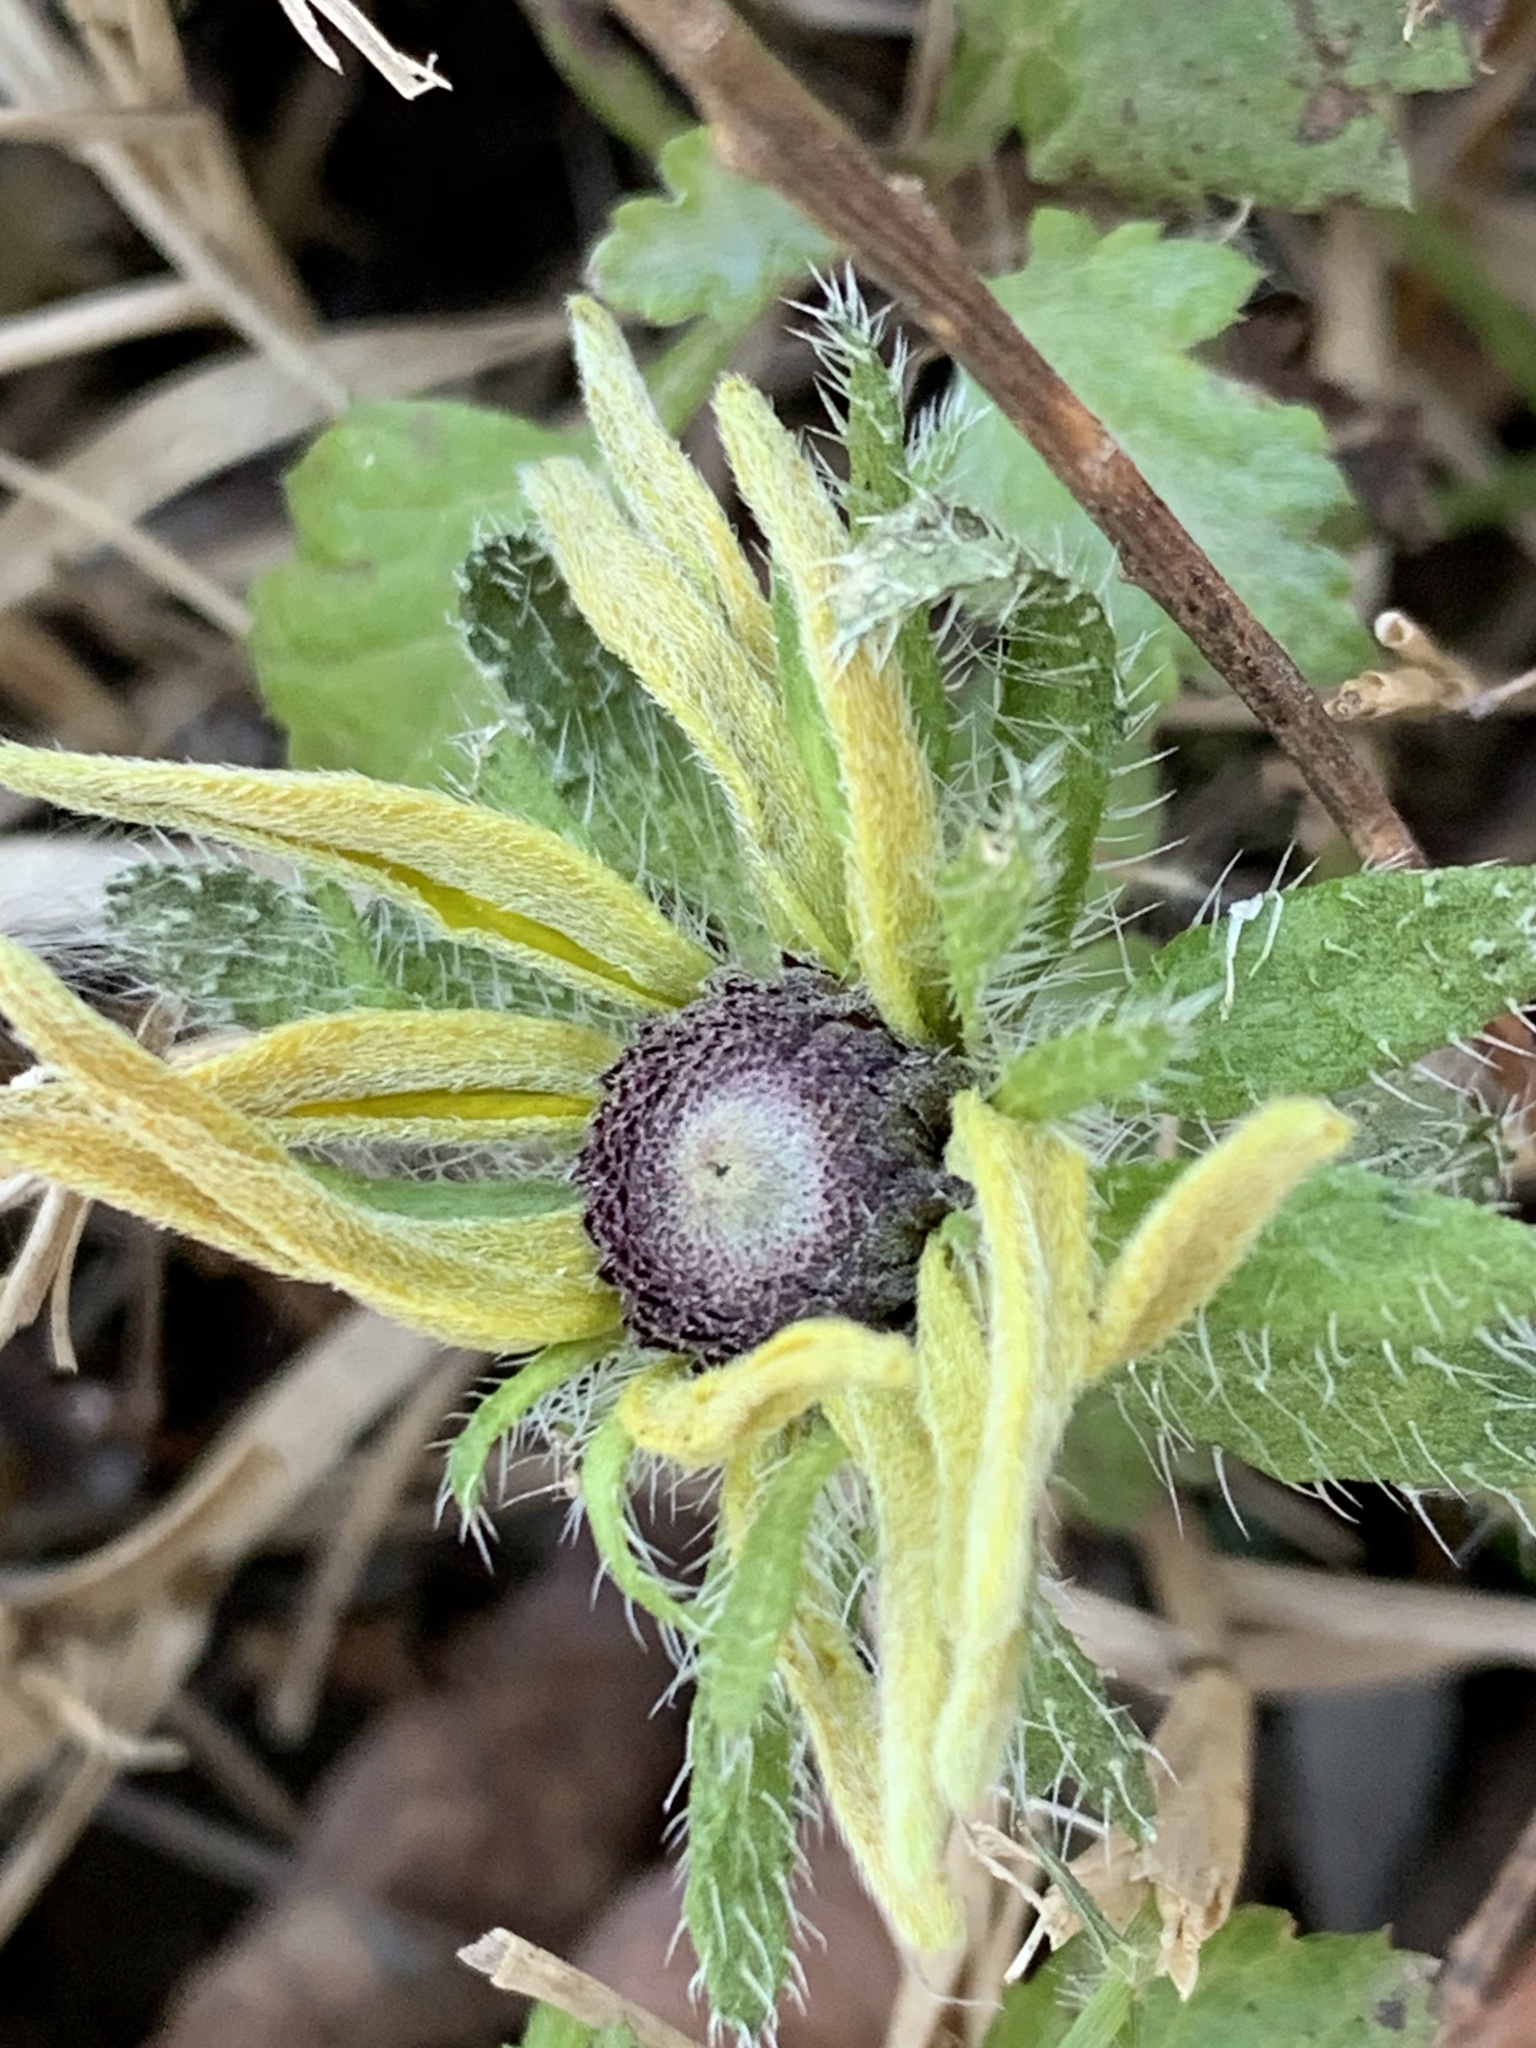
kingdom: Plantae
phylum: Tracheophyta
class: Magnoliopsida
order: Asterales
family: Asteraceae
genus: Rudbeckia
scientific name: Rudbeckia hirta
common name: Black-eyed-susan
